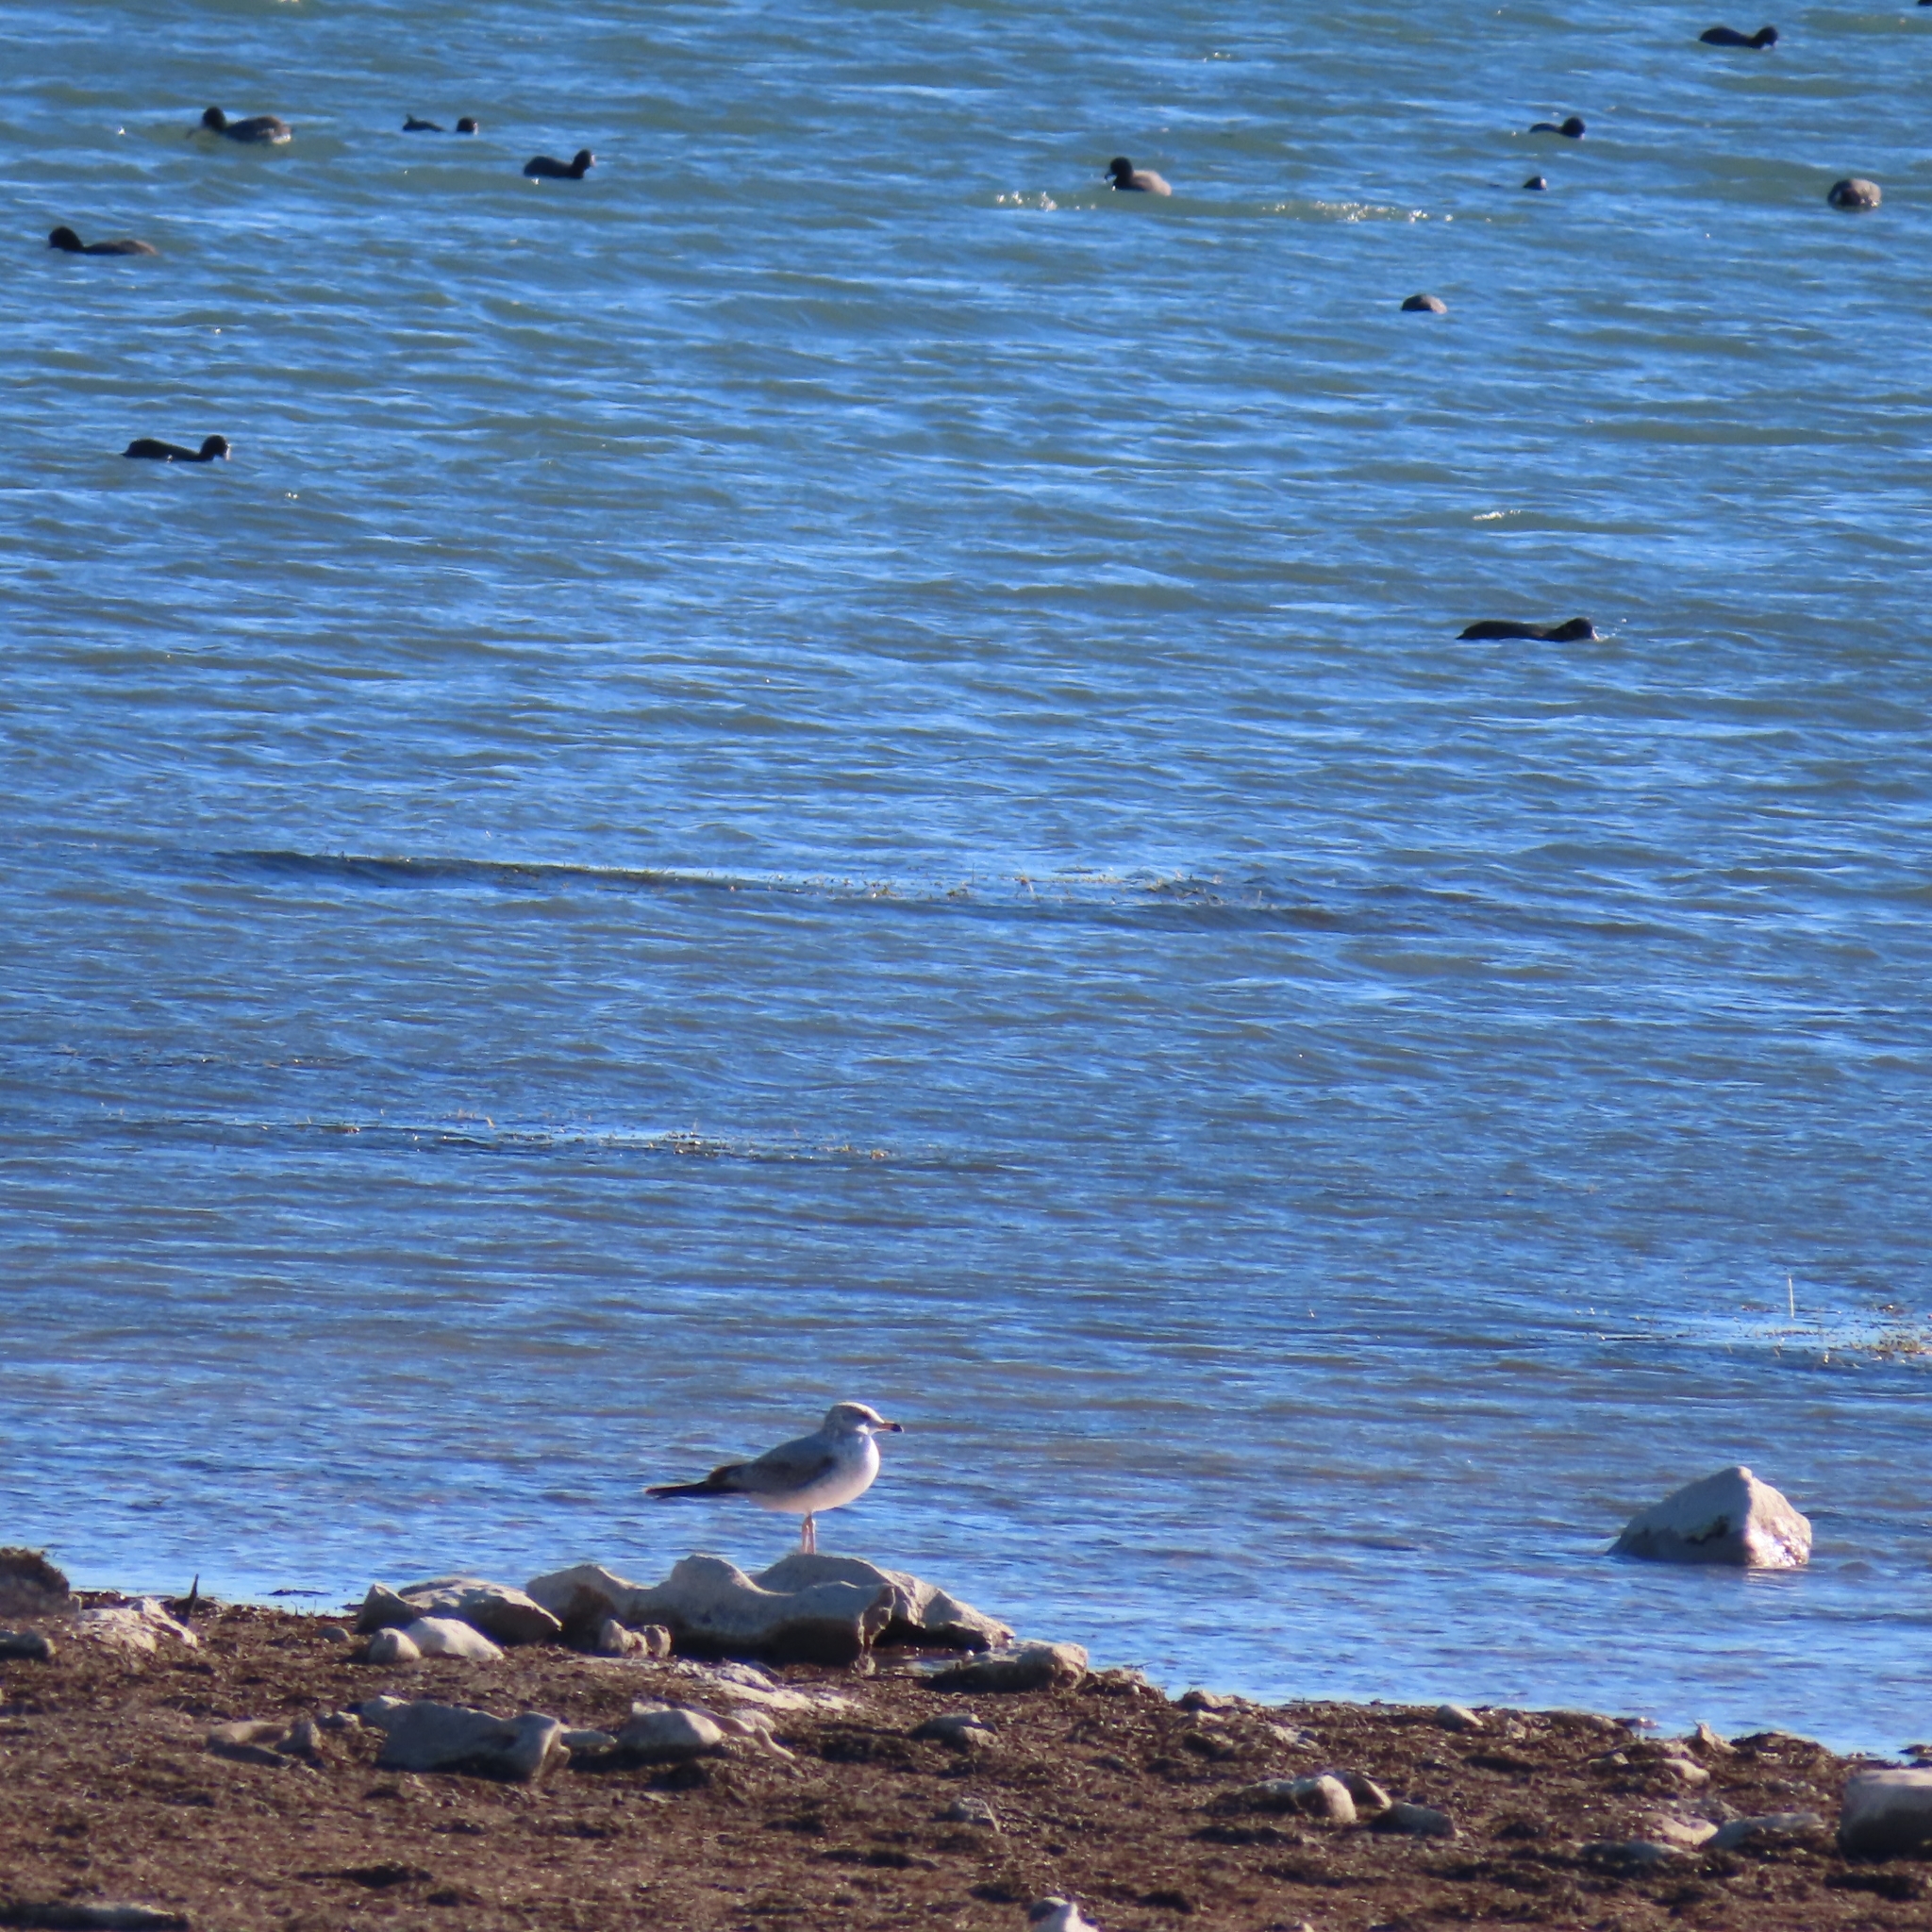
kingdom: Animalia
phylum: Chordata
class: Aves
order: Charadriiformes
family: Laridae
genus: Larus
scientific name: Larus delawarensis
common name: Ring-billed gull
